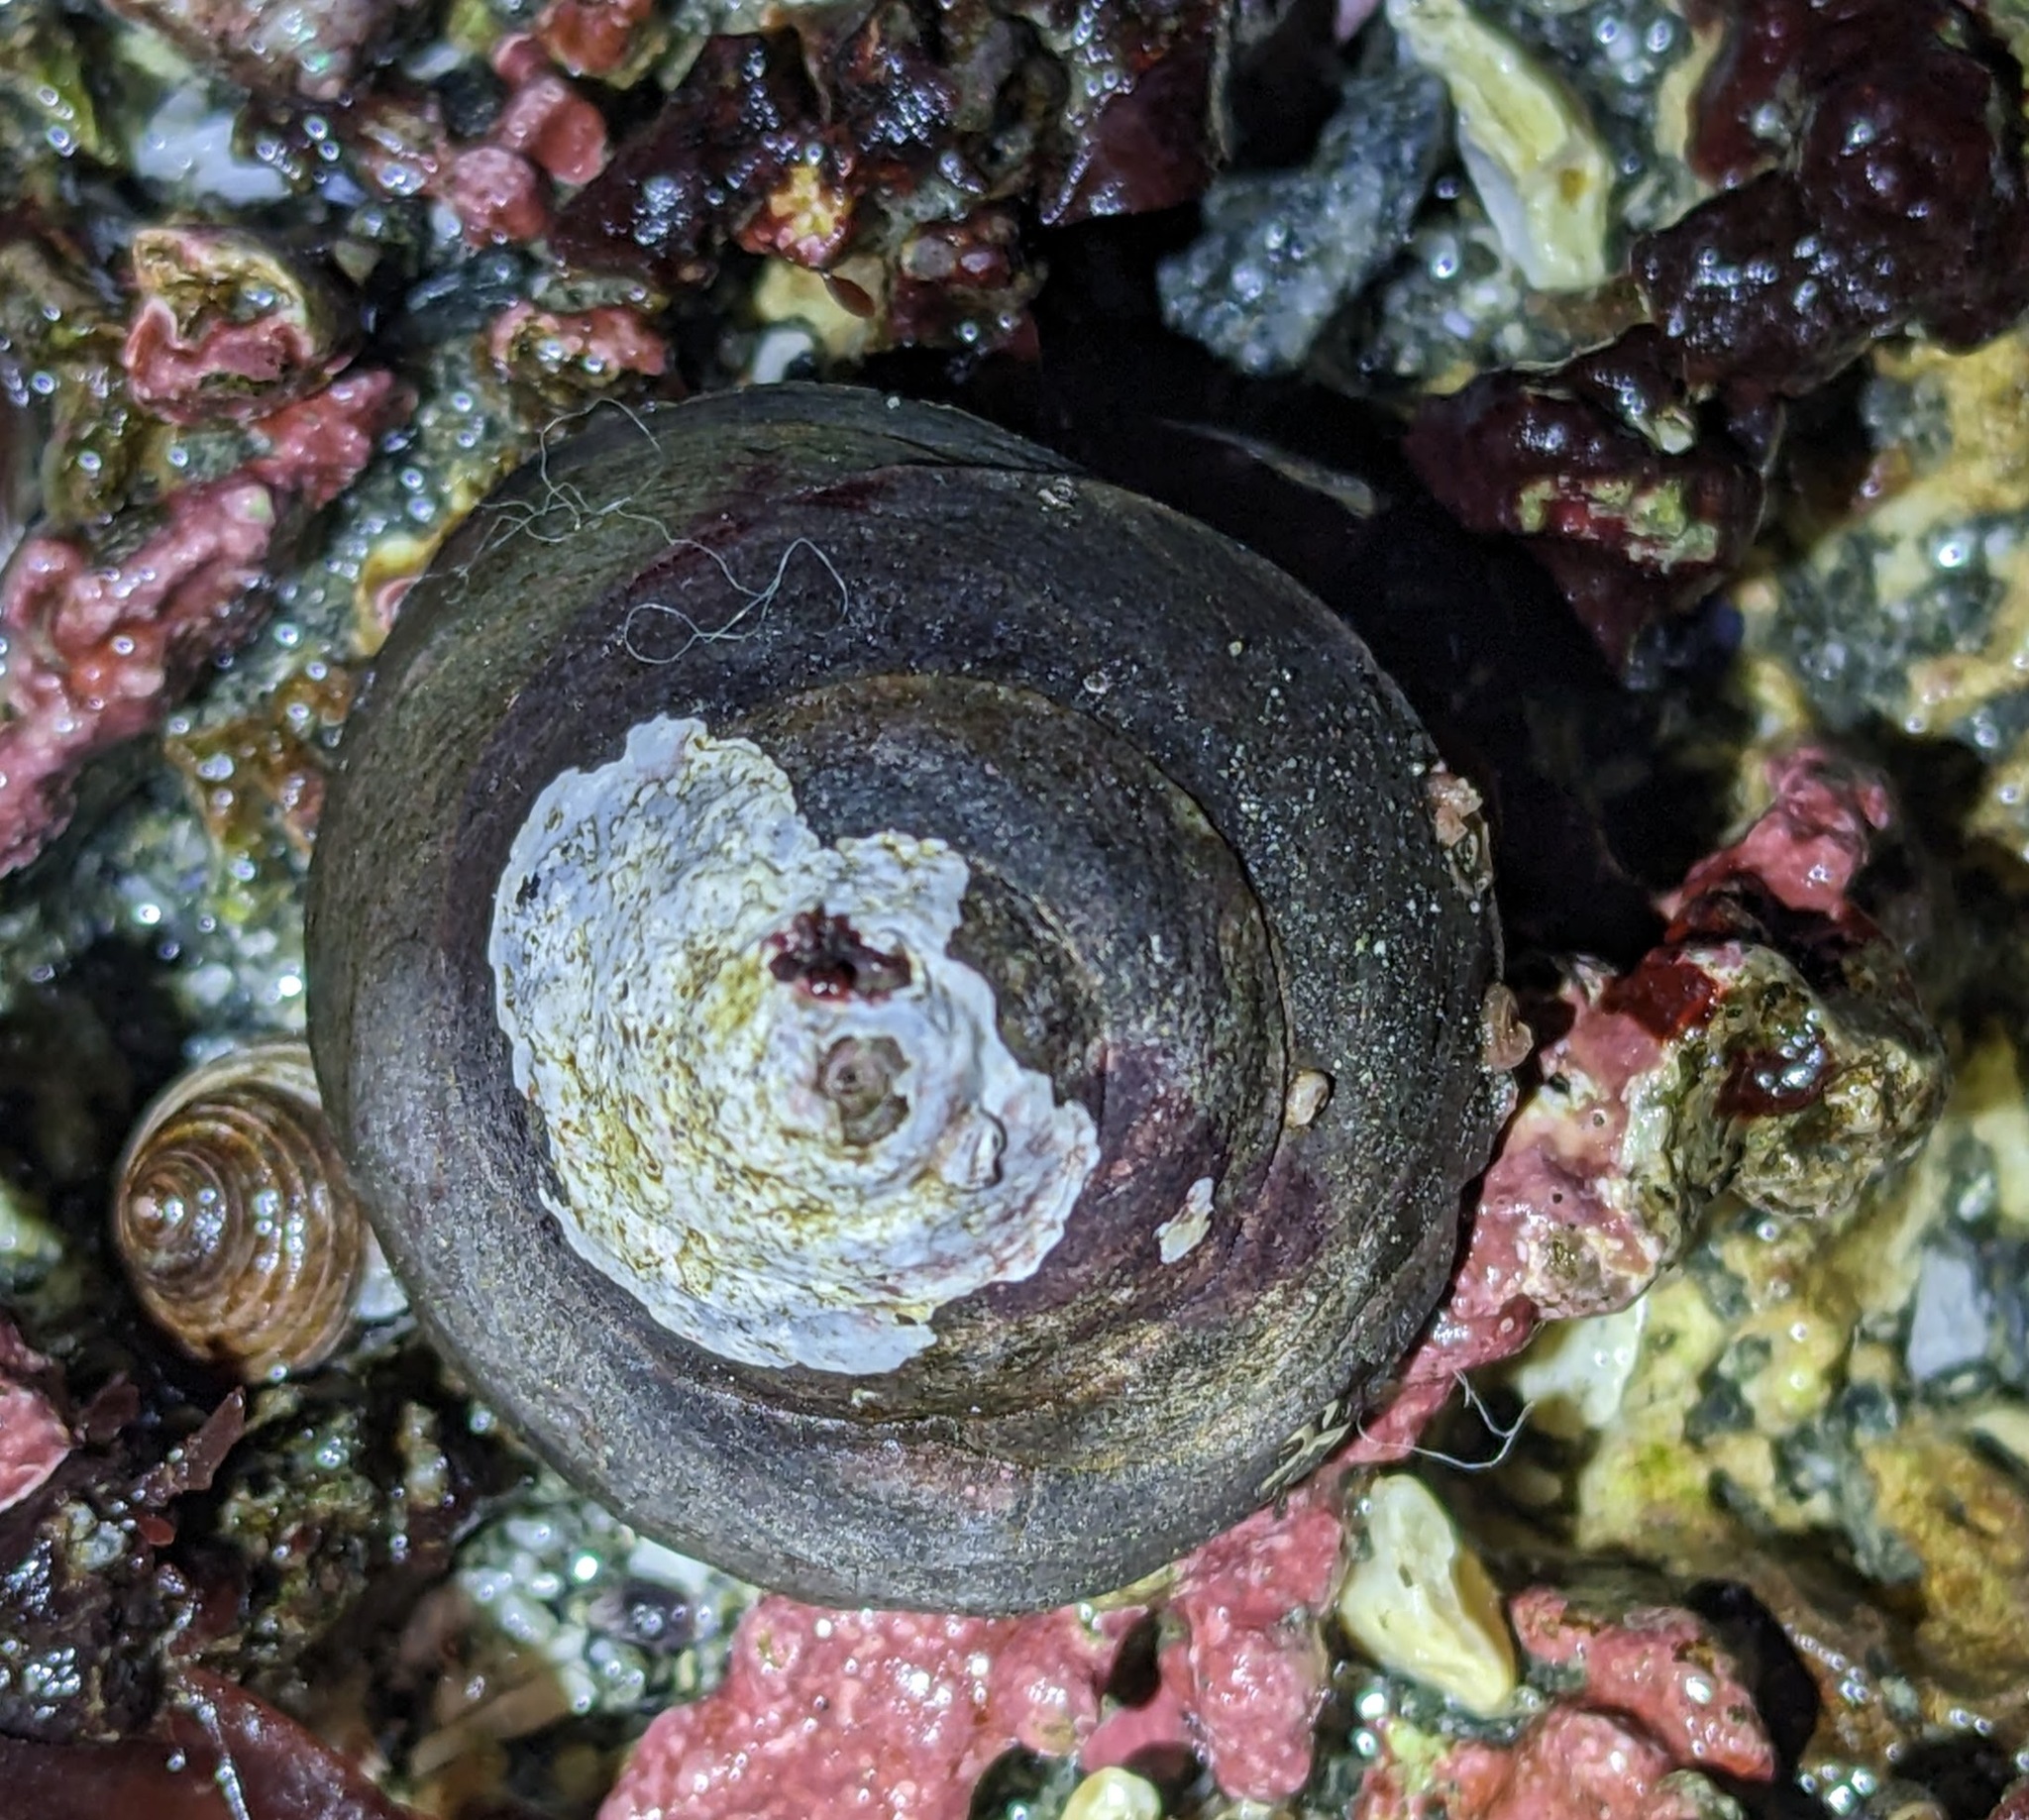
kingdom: Animalia
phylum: Mollusca
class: Gastropoda
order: Trochida
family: Tegulidae
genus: Tegula
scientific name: Tegula pulligo
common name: Brown turban
